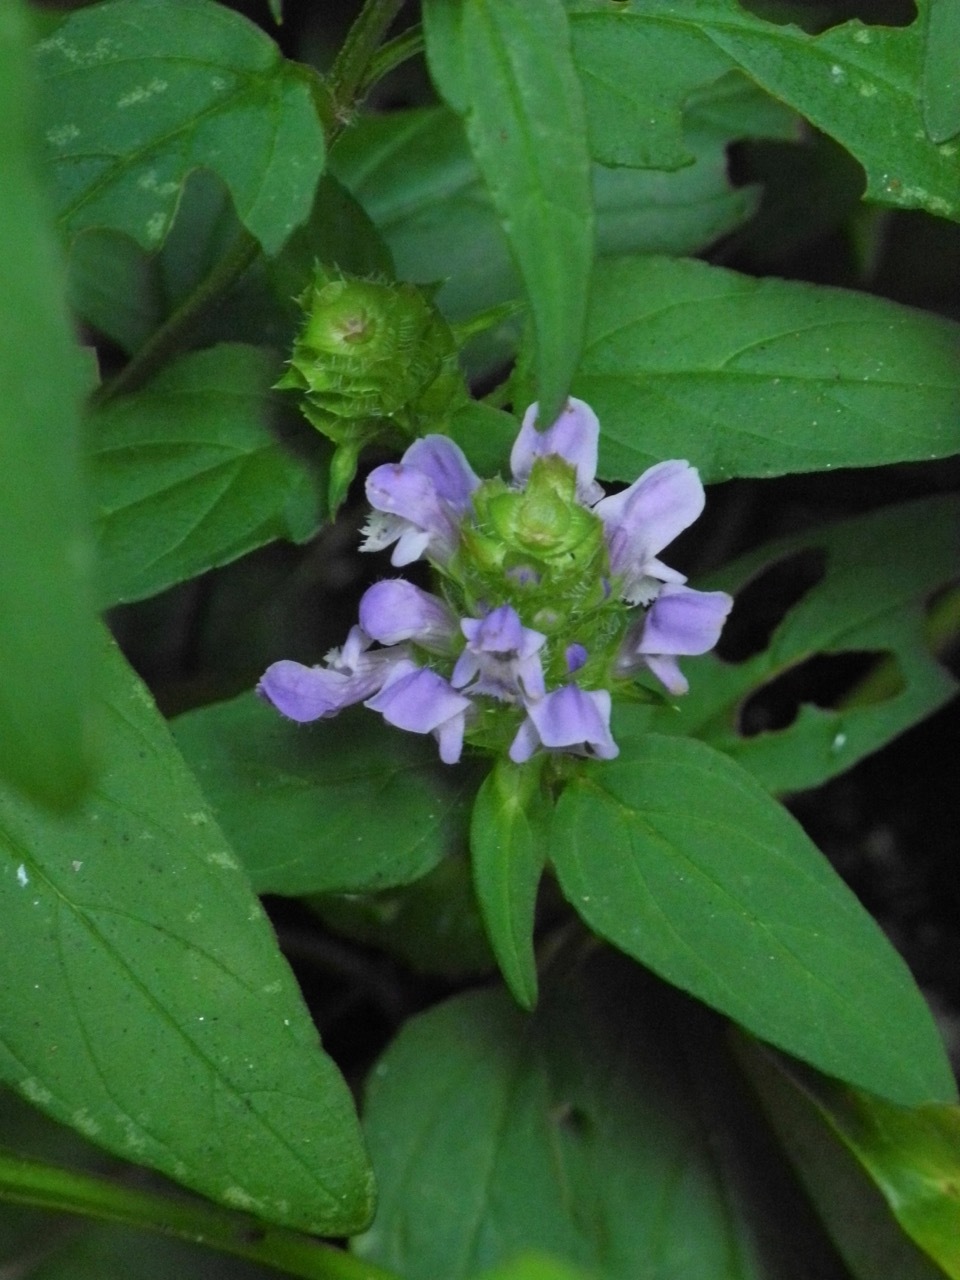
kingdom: Plantae
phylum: Tracheophyta
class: Magnoliopsida
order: Lamiales
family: Lamiaceae
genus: Prunella
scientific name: Prunella vulgaris
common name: Heal-all
